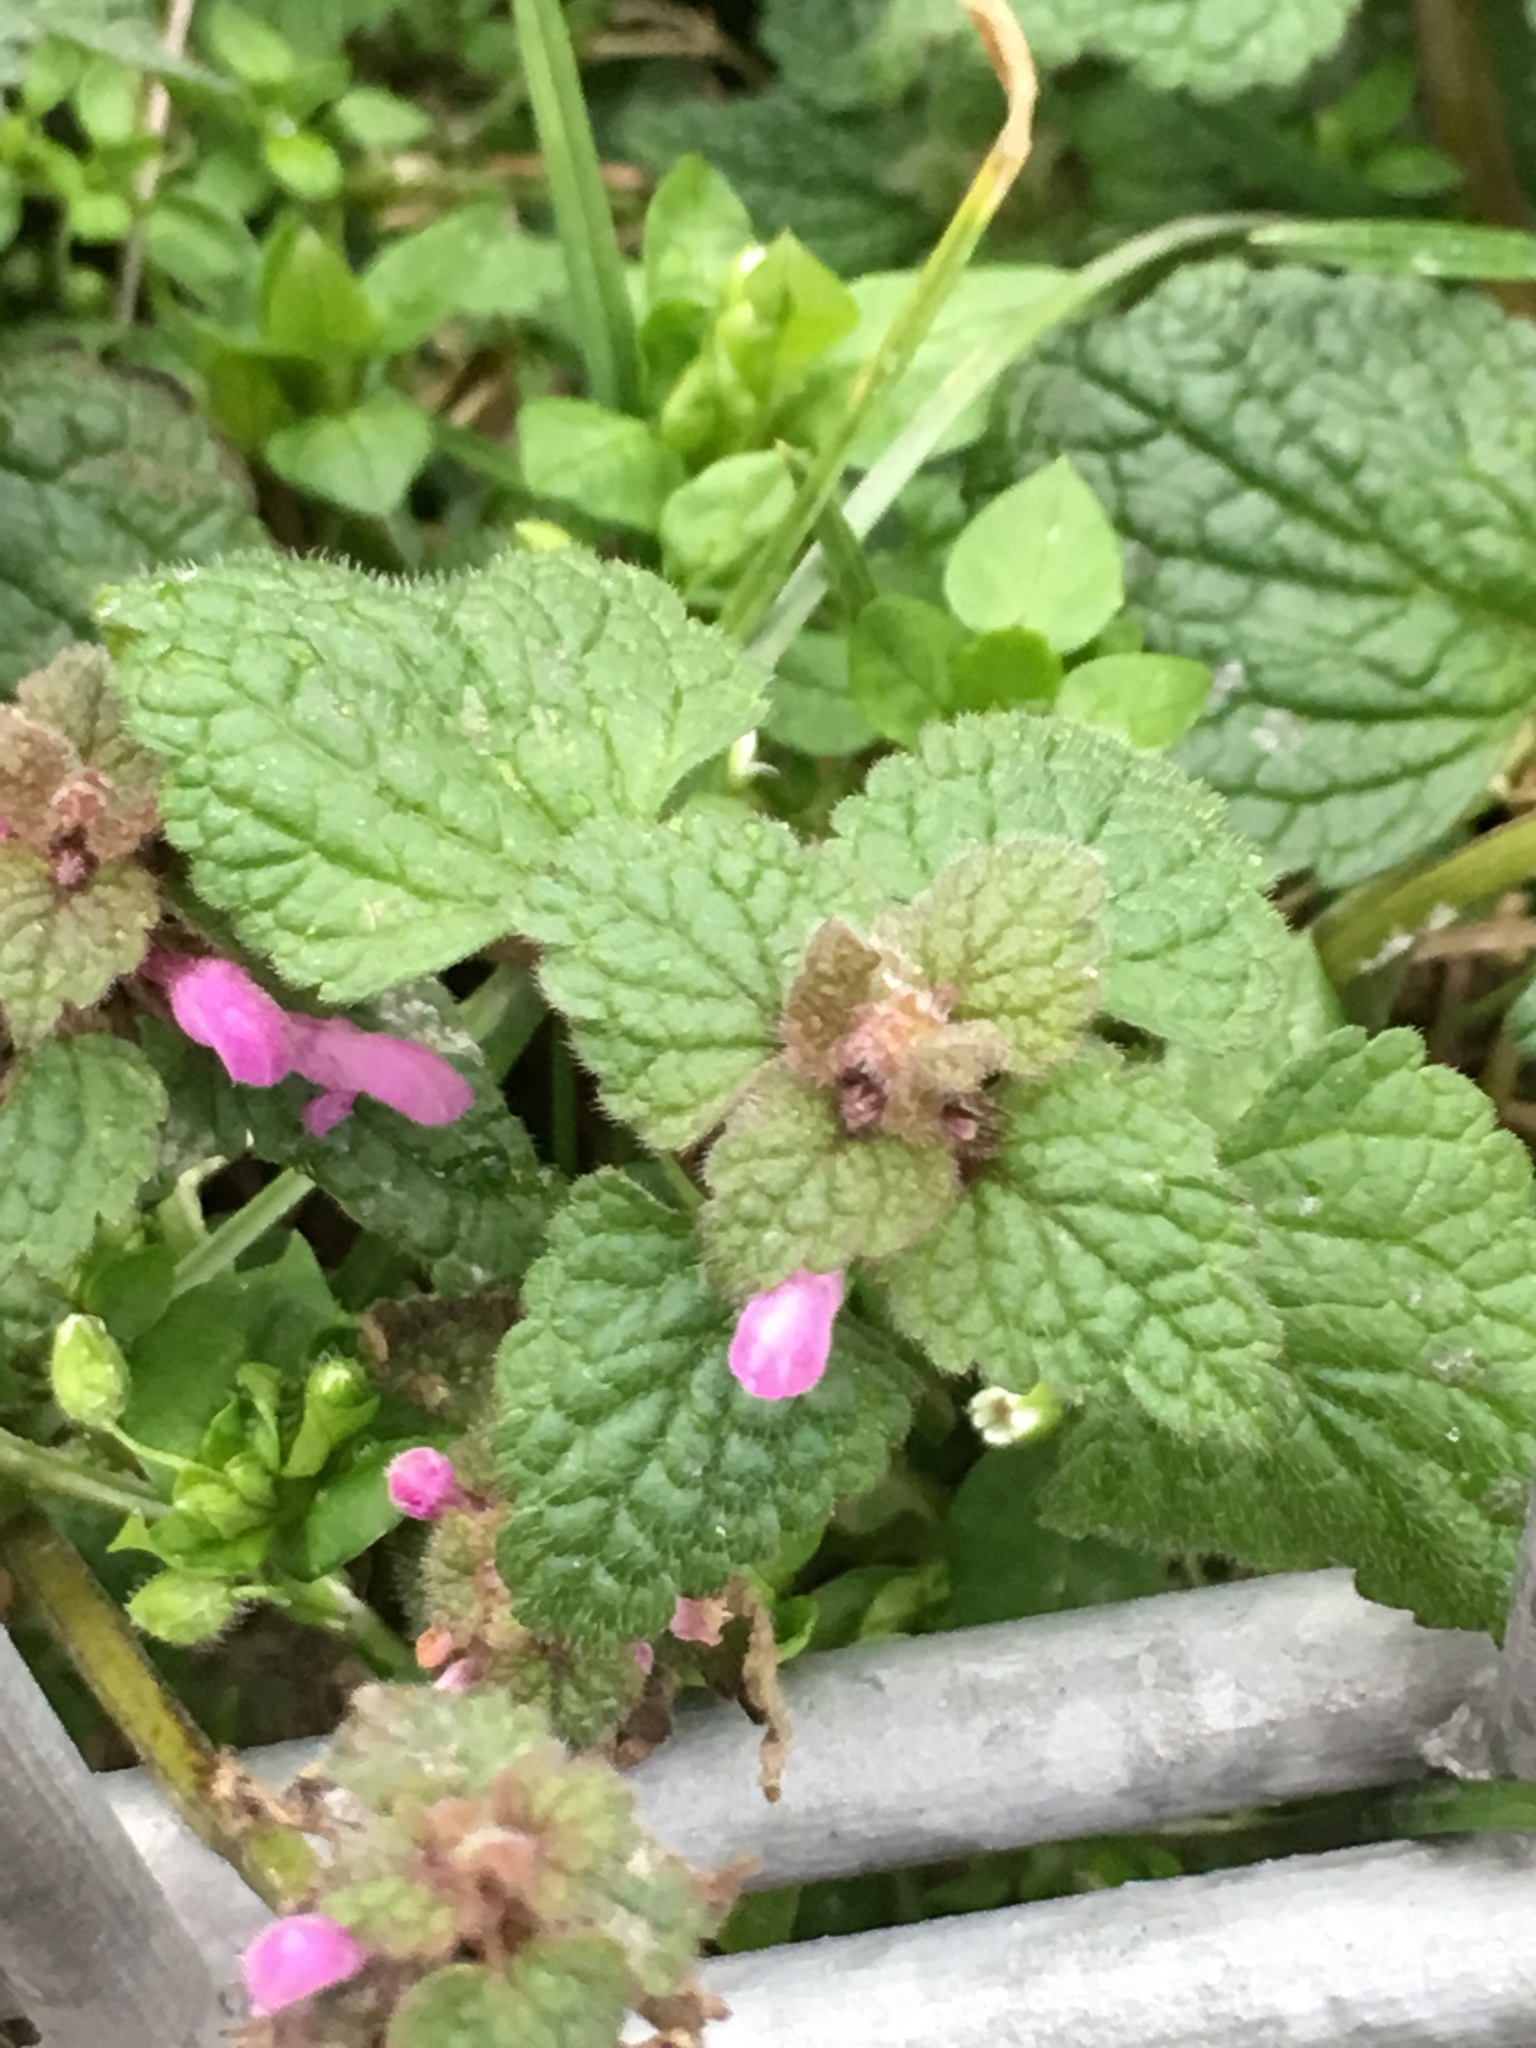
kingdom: Plantae
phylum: Tracheophyta
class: Magnoliopsida
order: Lamiales
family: Lamiaceae
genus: Lamium
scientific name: Lamium purpureum
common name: Red dead-nettle
